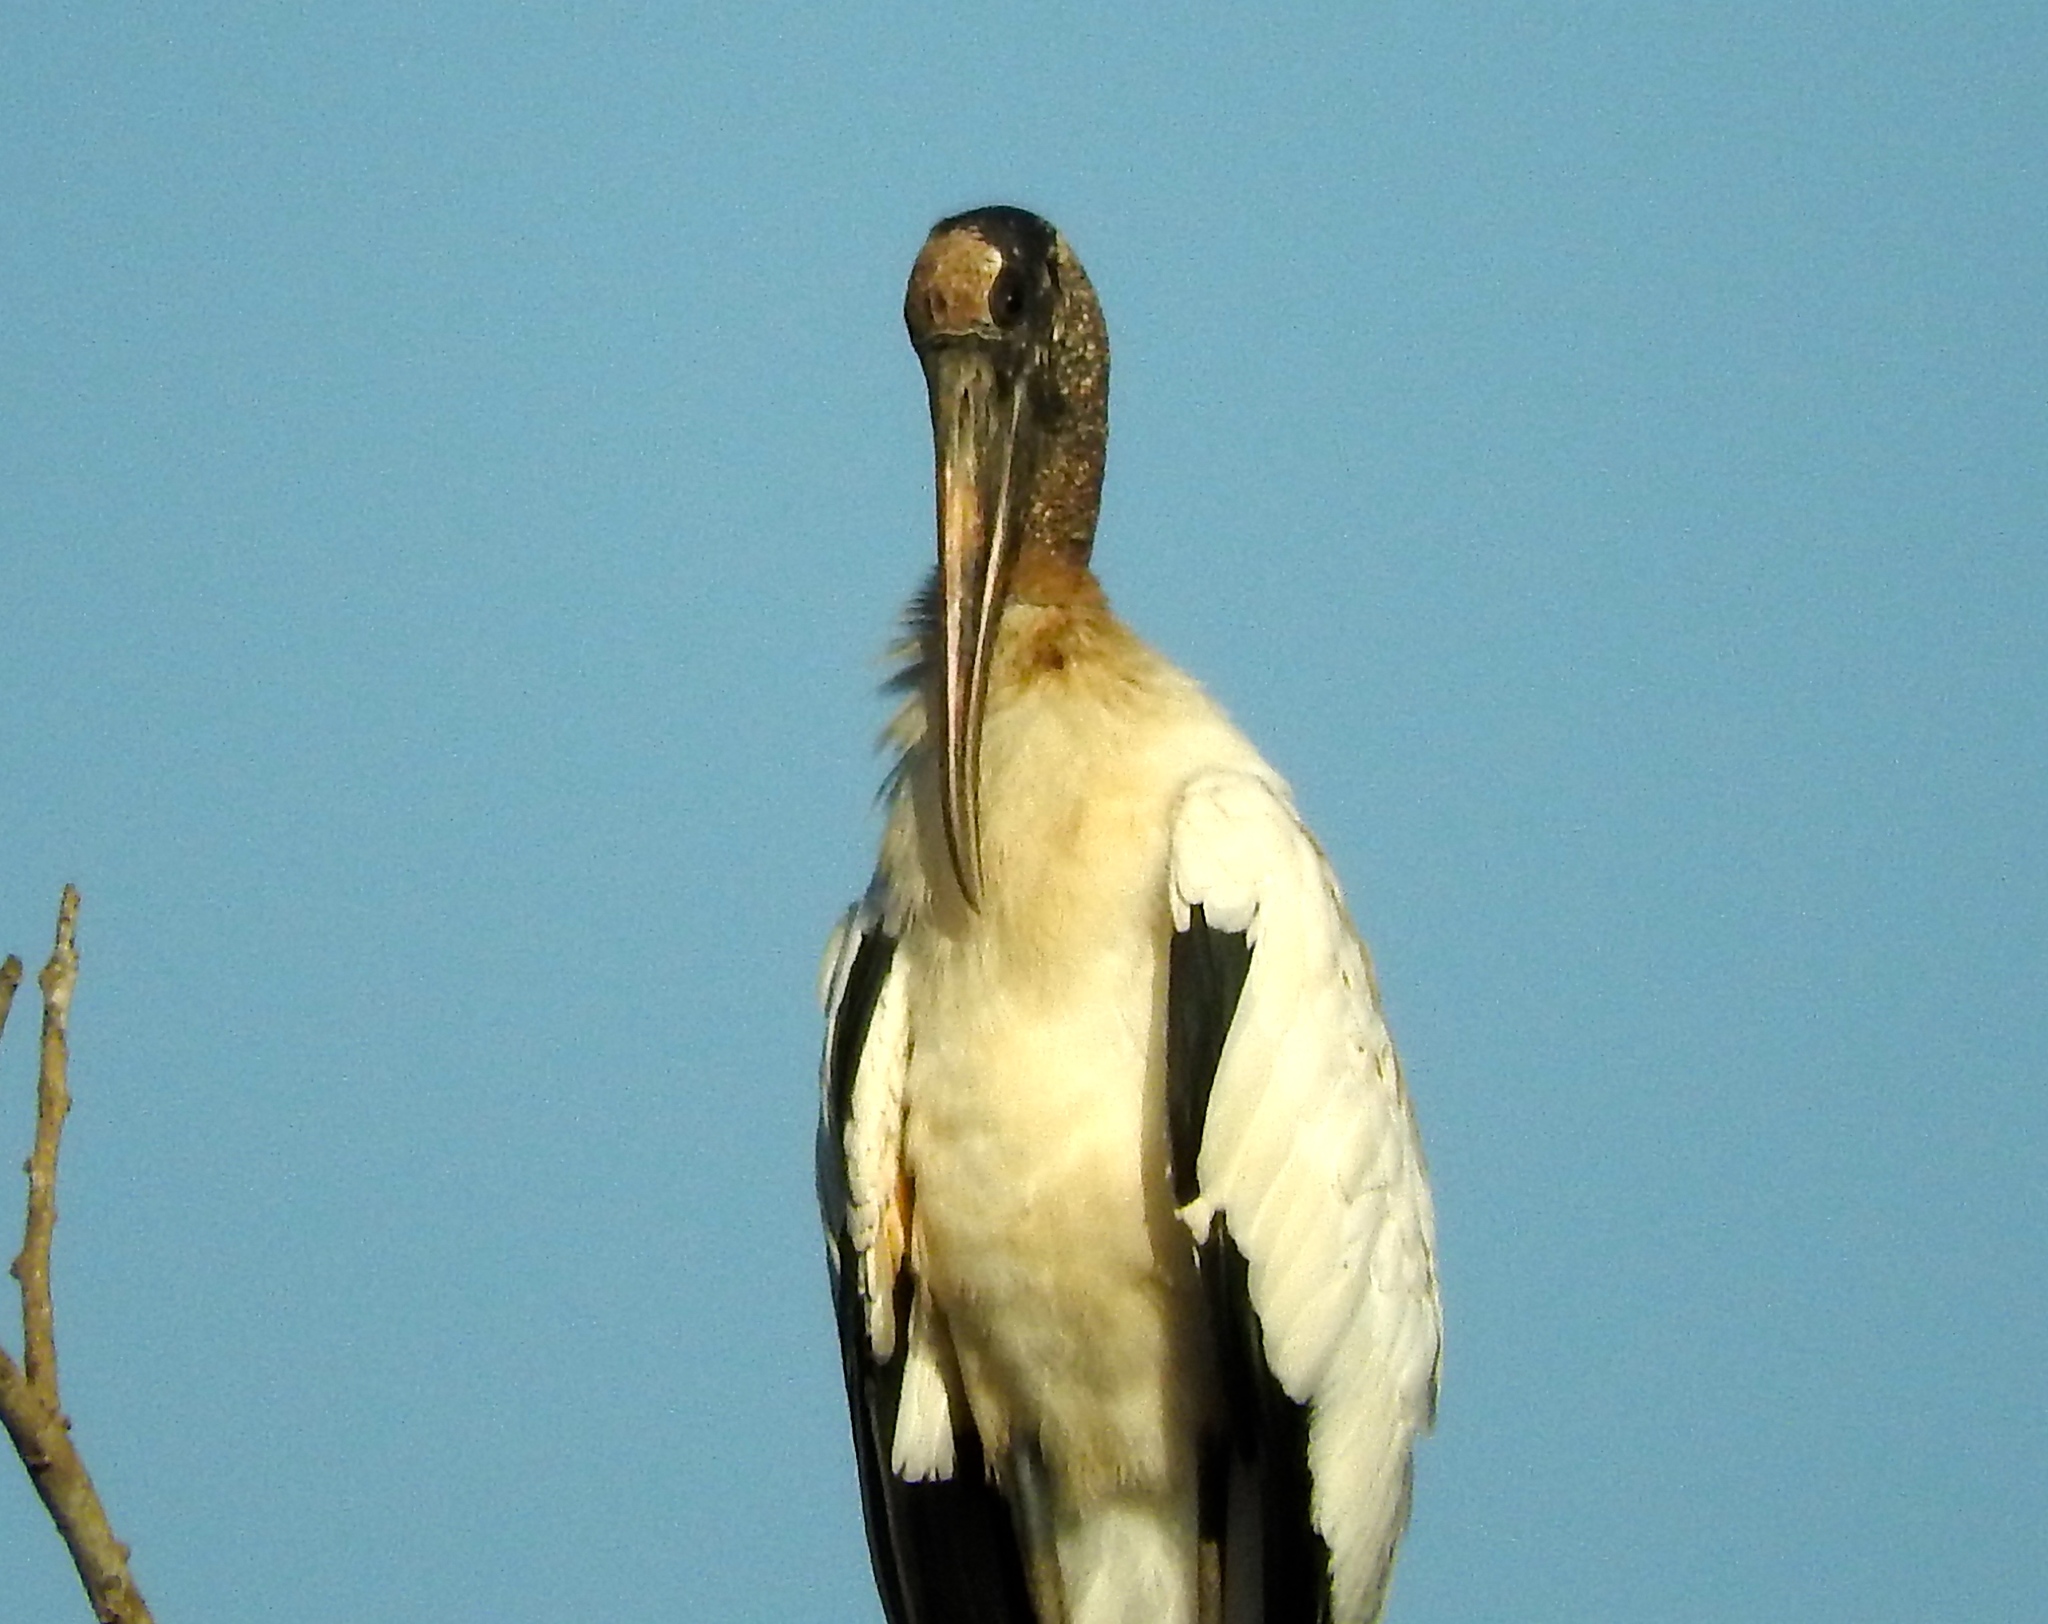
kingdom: Animalia
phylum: Chordata
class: Aves
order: Ciconiiformes
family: Ciconiidae
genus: Mycteria
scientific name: Mycteria americana
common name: Wood stork
